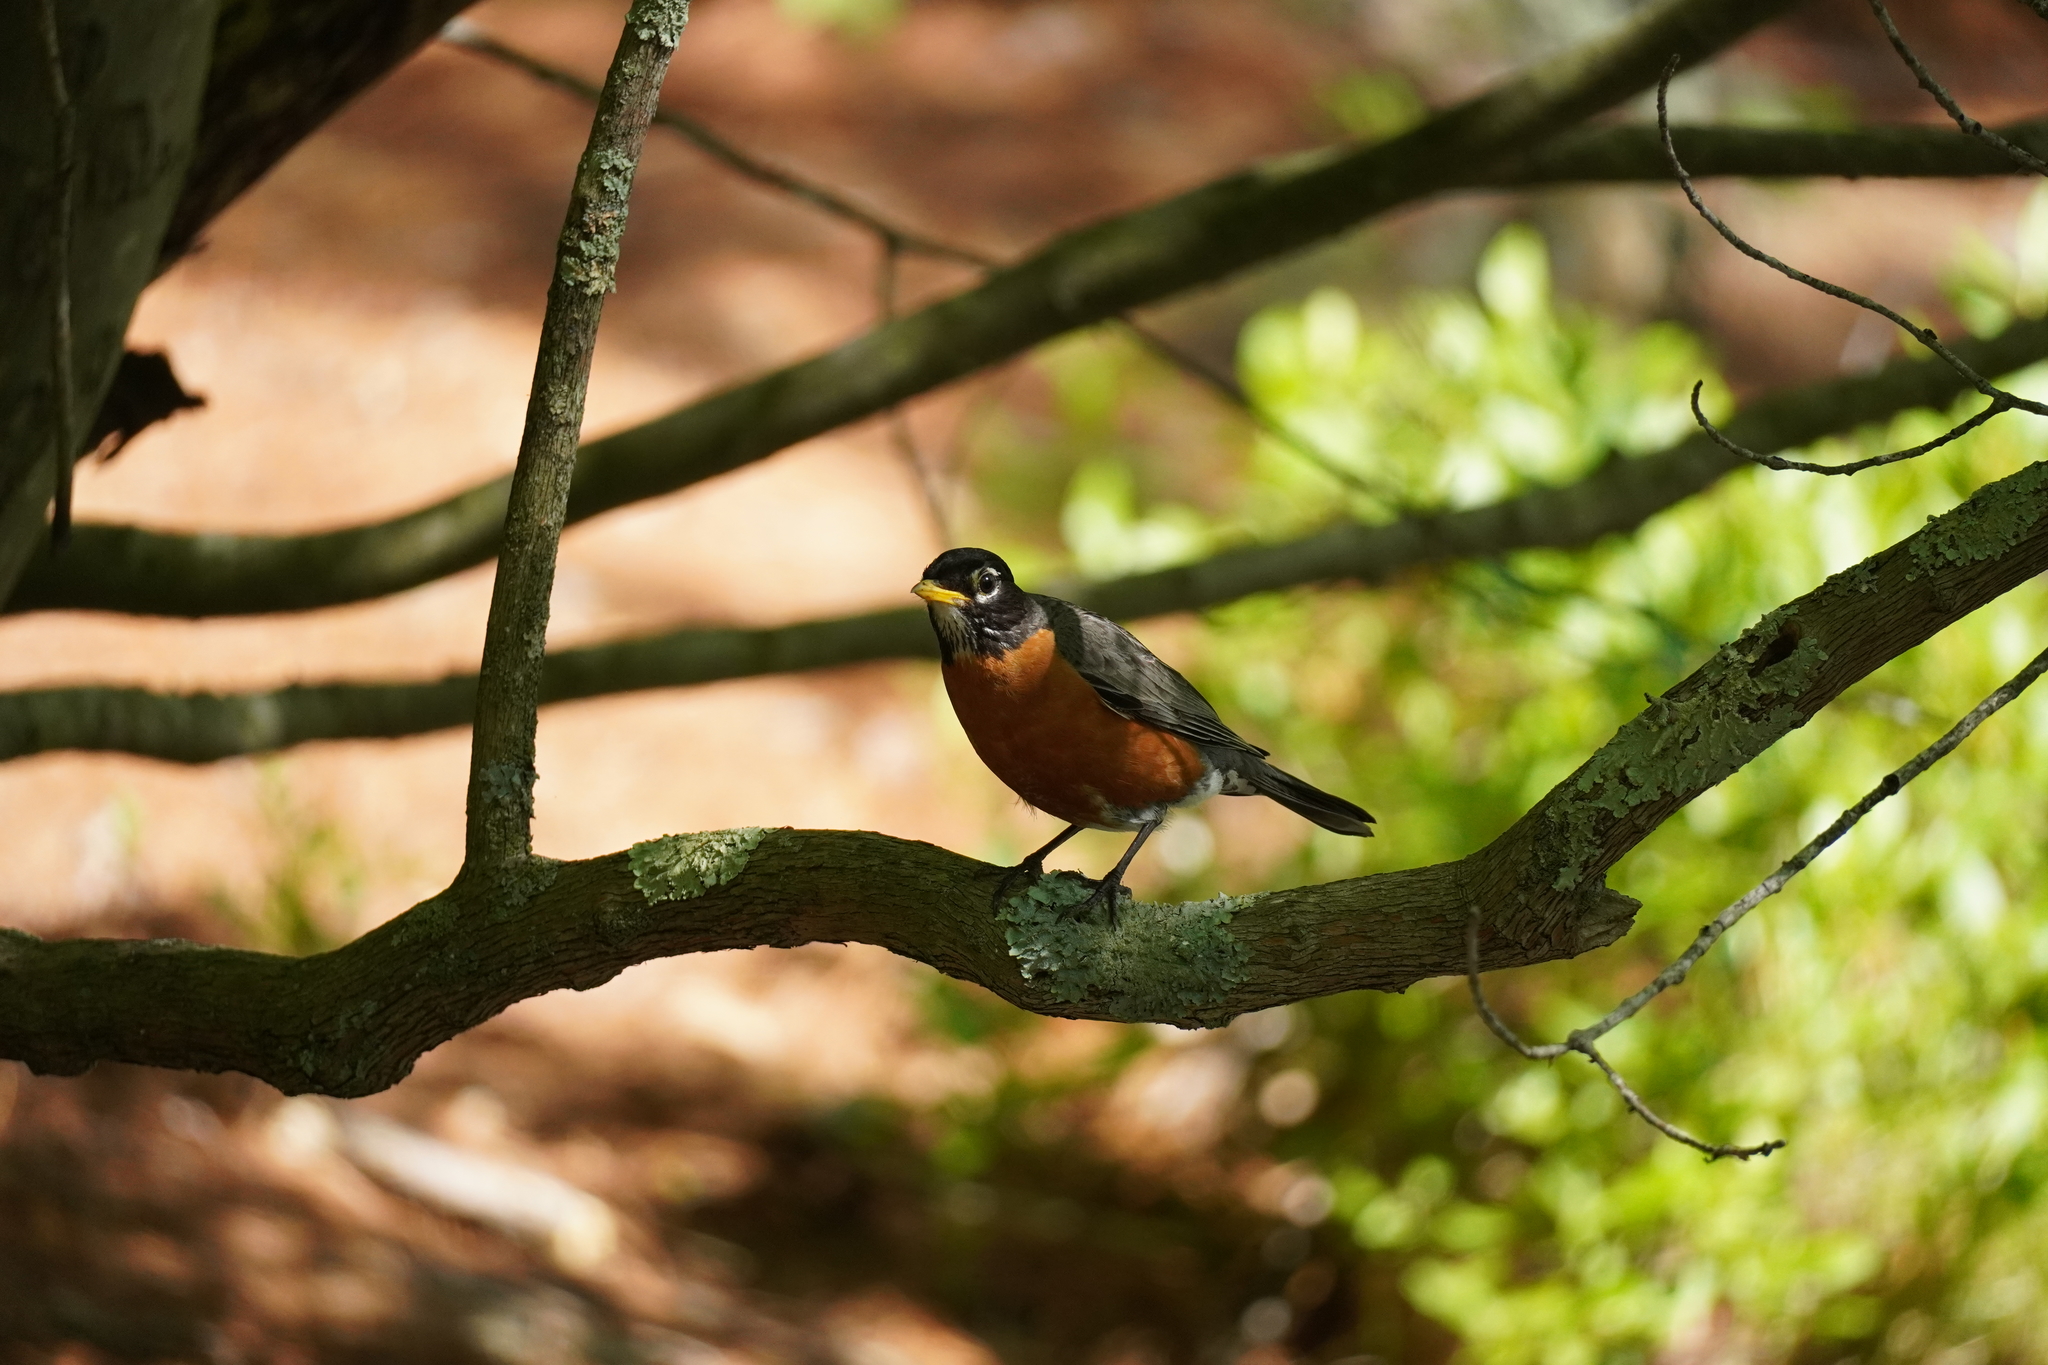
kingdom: Animalia
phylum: Chordata
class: Aves
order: Passeriformes
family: Turdidae
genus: Turdus
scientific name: Turdus migratorius
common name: American robin
